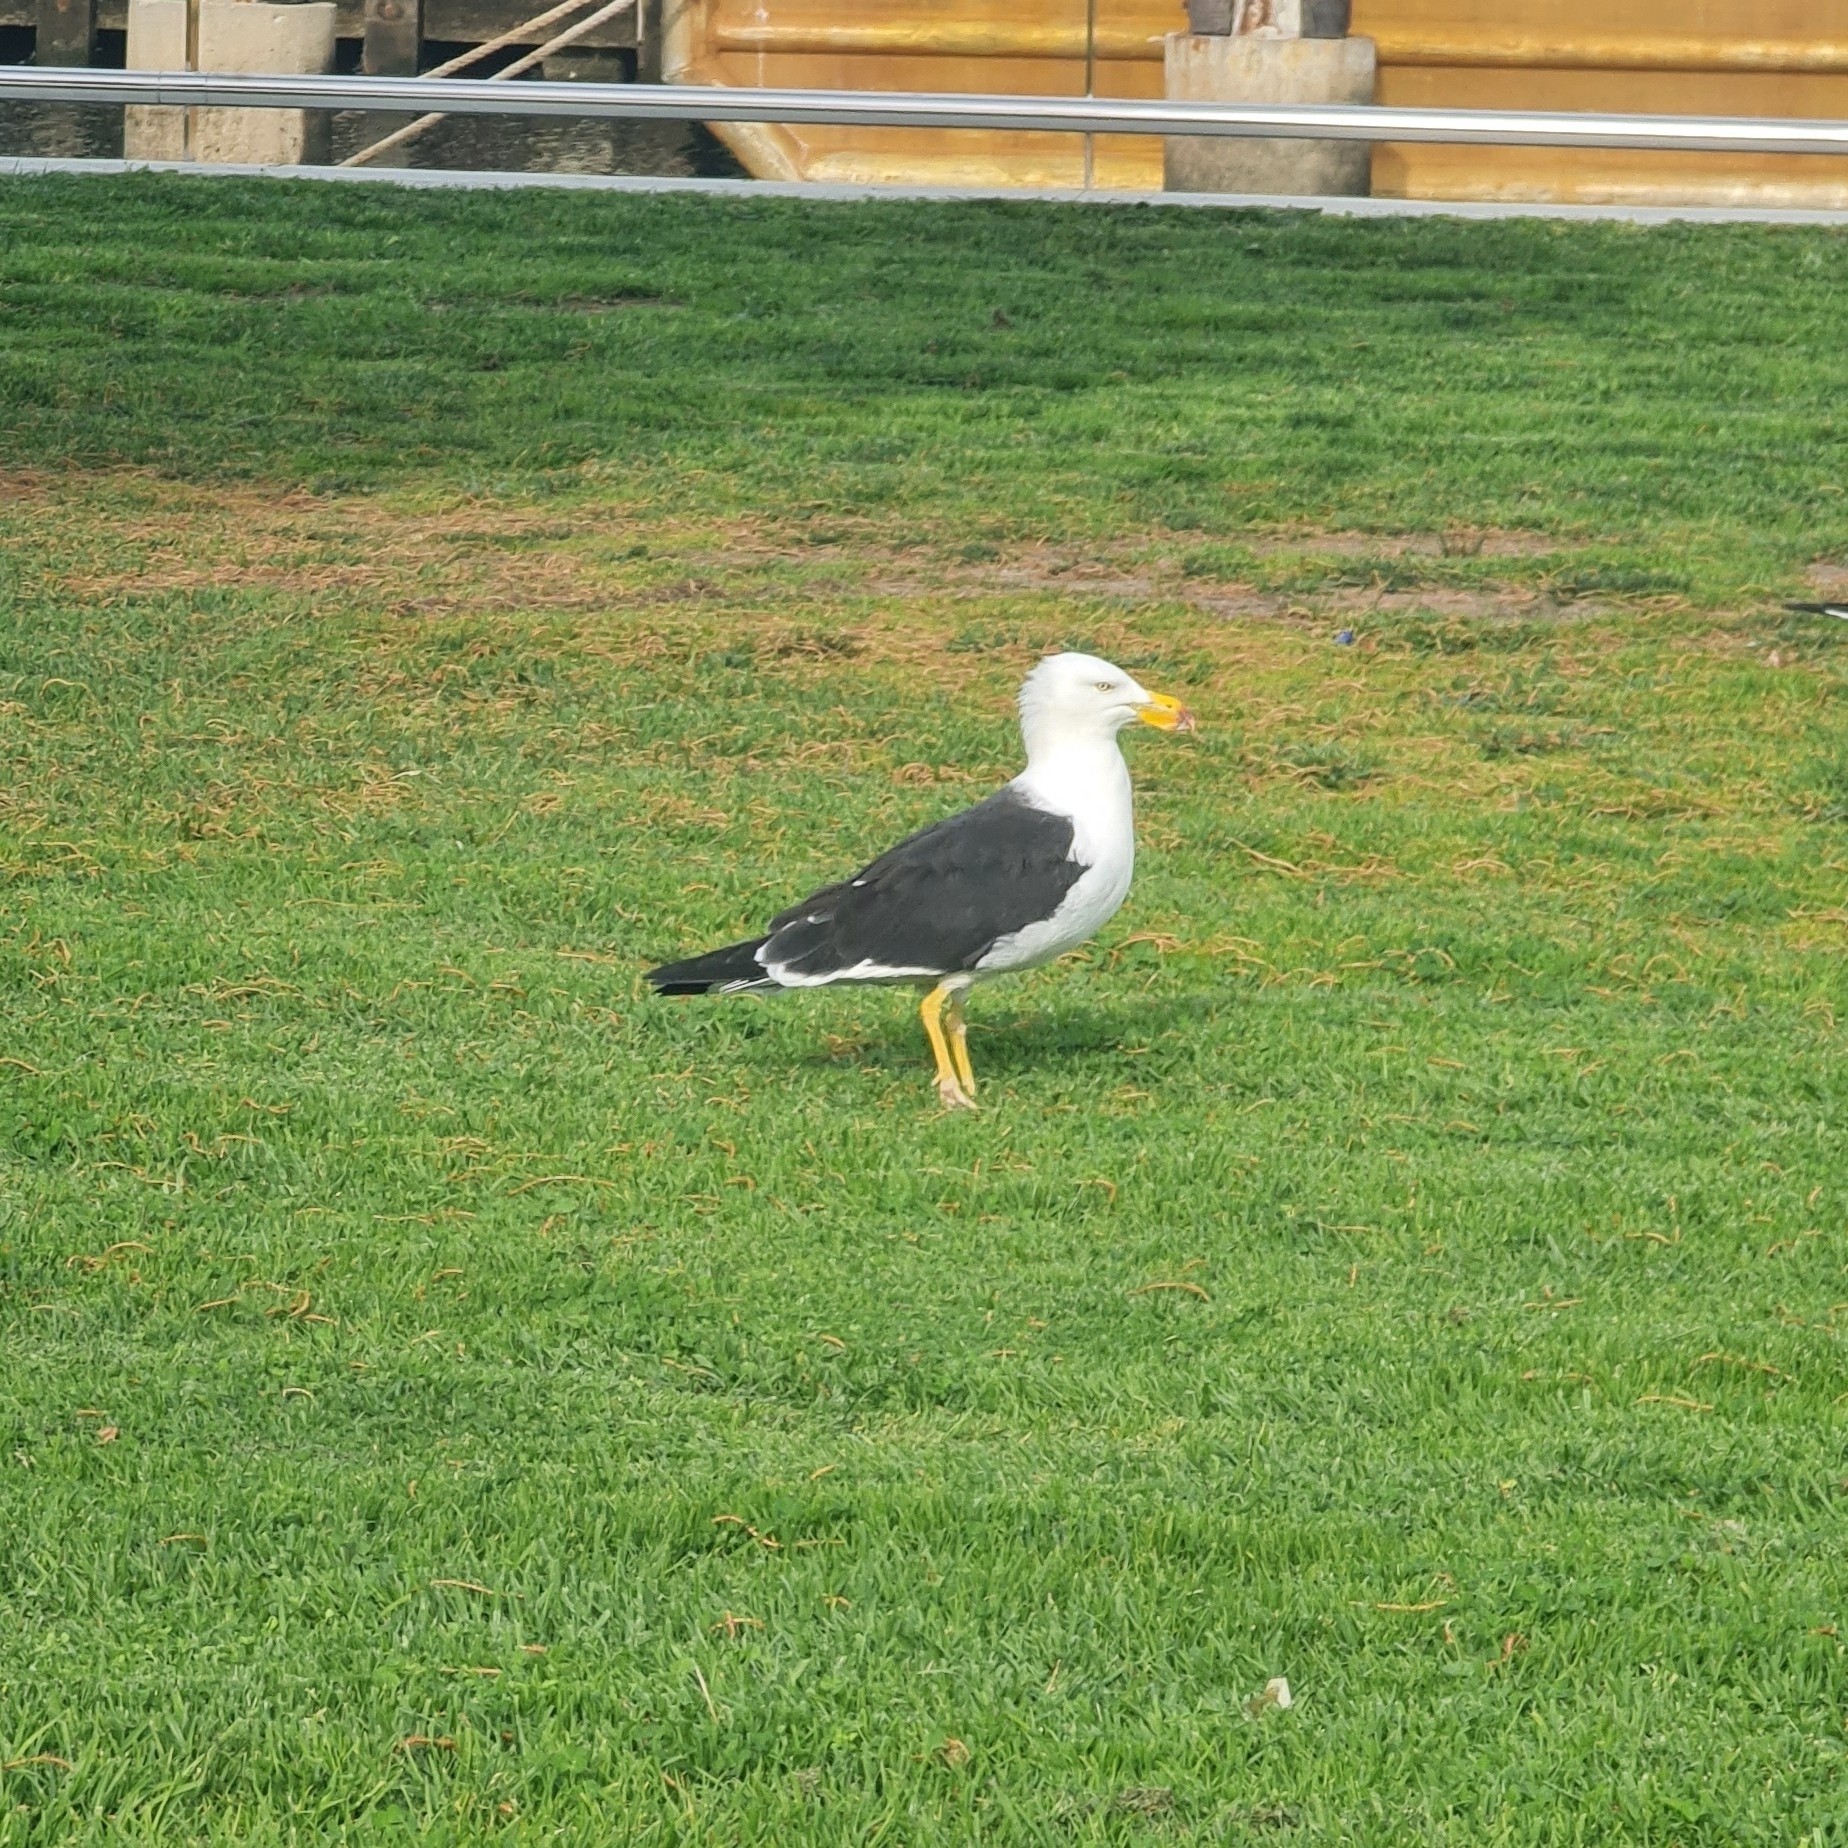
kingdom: Animalia
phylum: Chordata
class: Aves
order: Charadriiformes
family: Laridae
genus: Larus
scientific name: Larus pacificus
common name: Pacific gull
